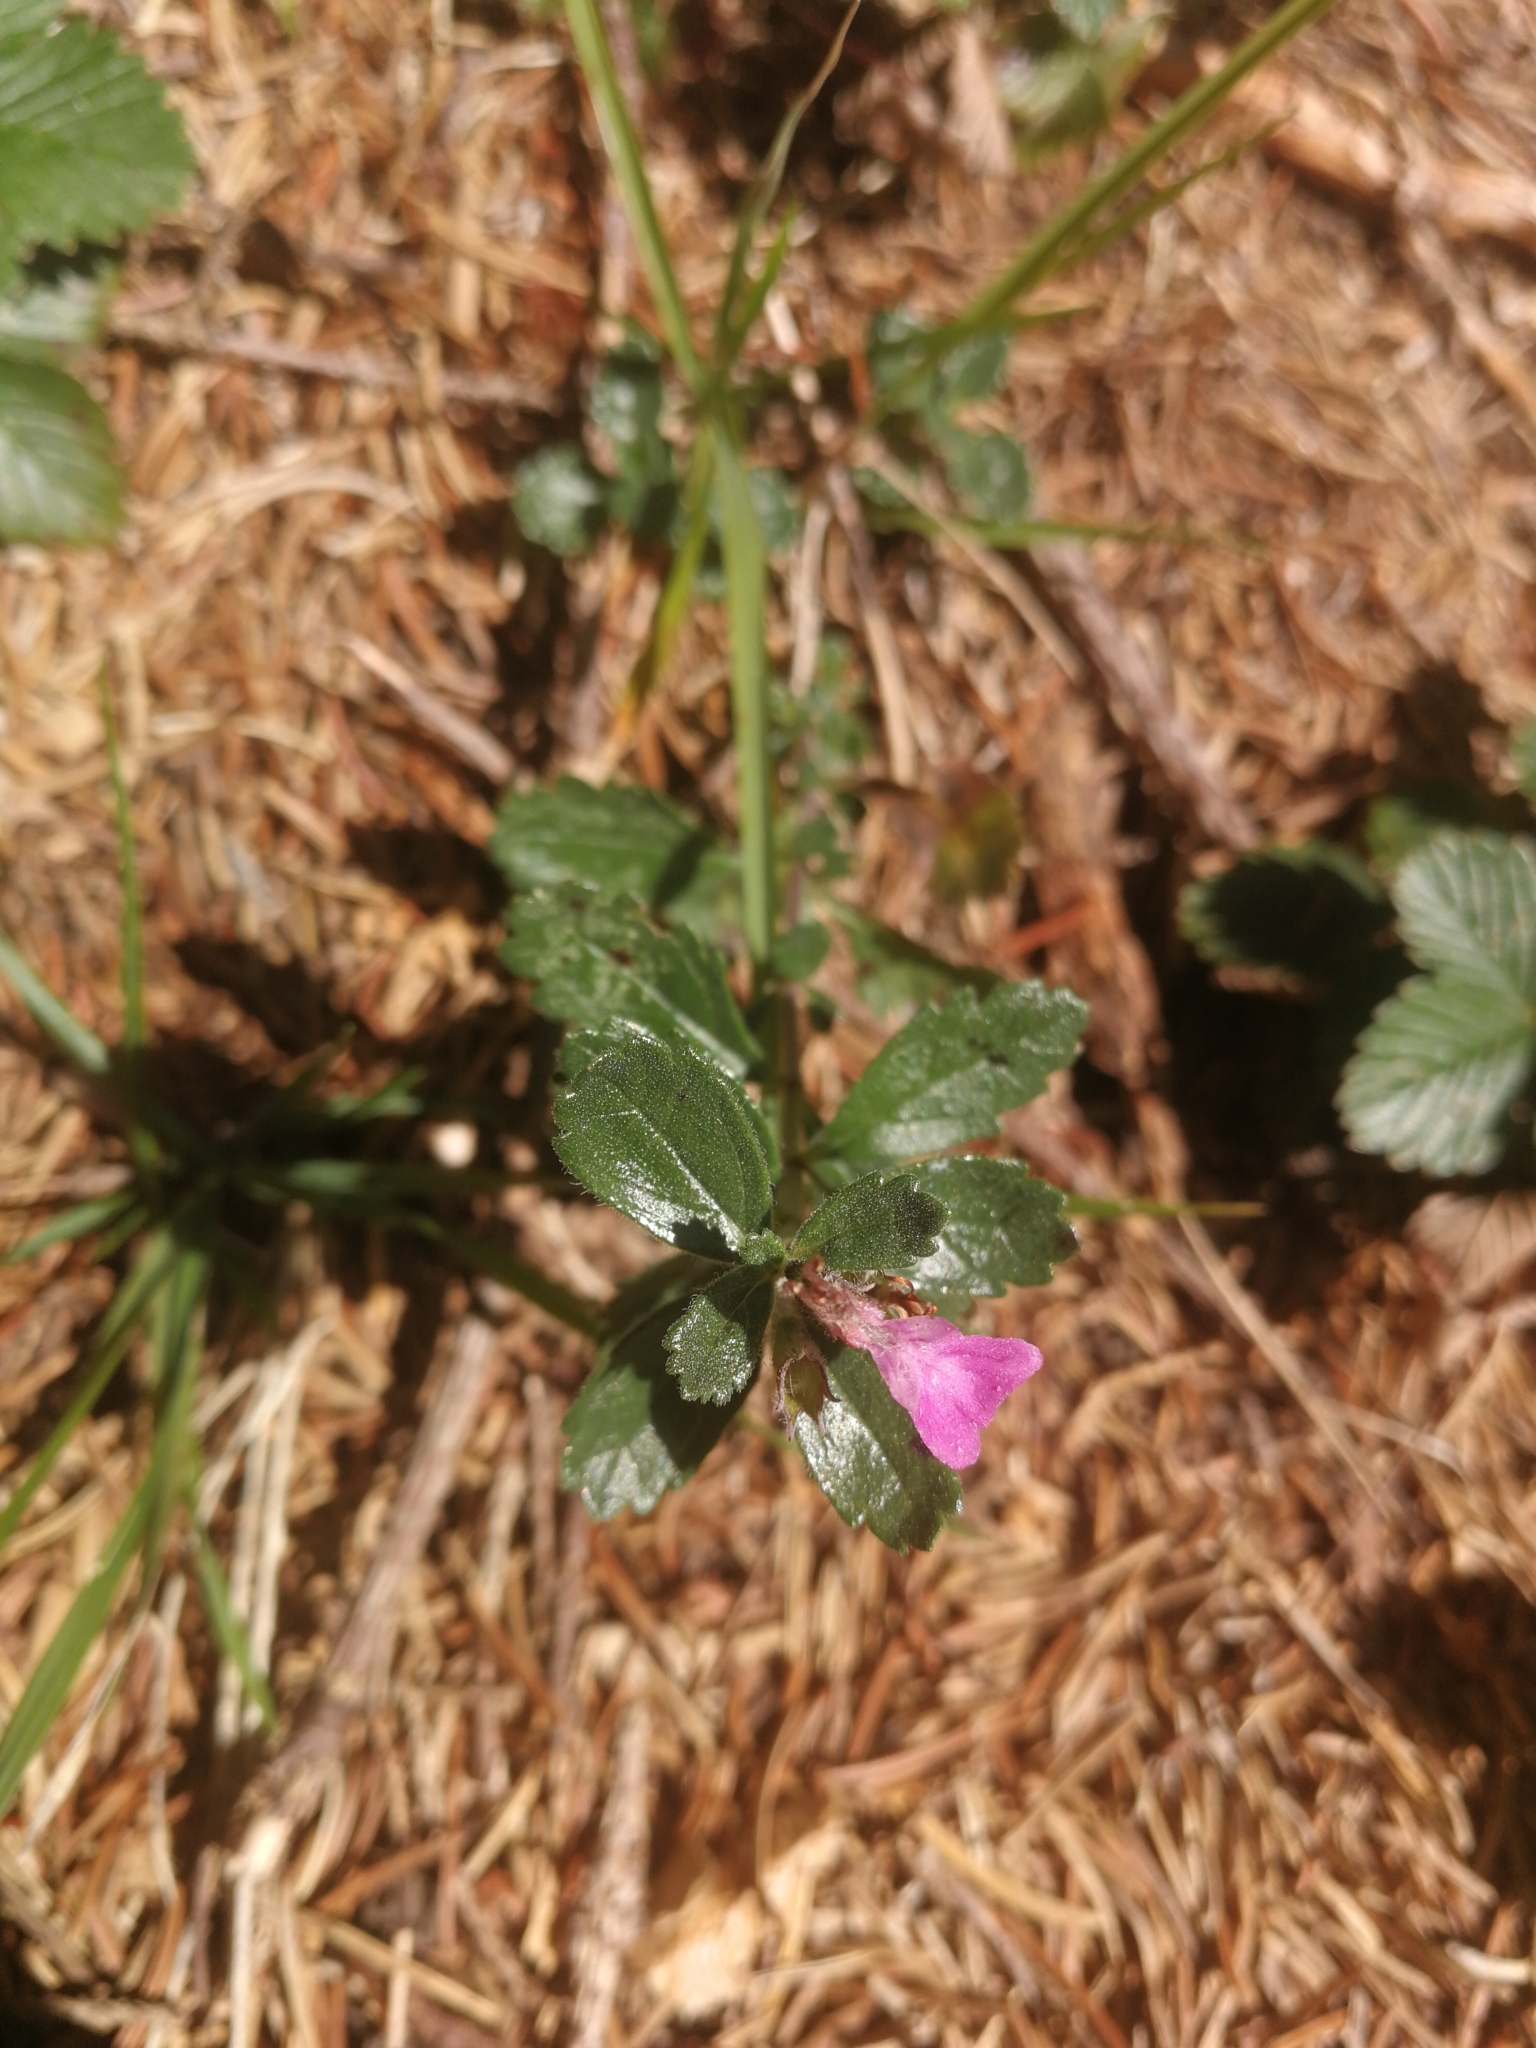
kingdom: Plantae
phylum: Tracheophyta
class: Magnoliopsida
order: Lamiales
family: Lamiaceae
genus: Teucrium
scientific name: Teucrium chamaedrys
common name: Wall germander
